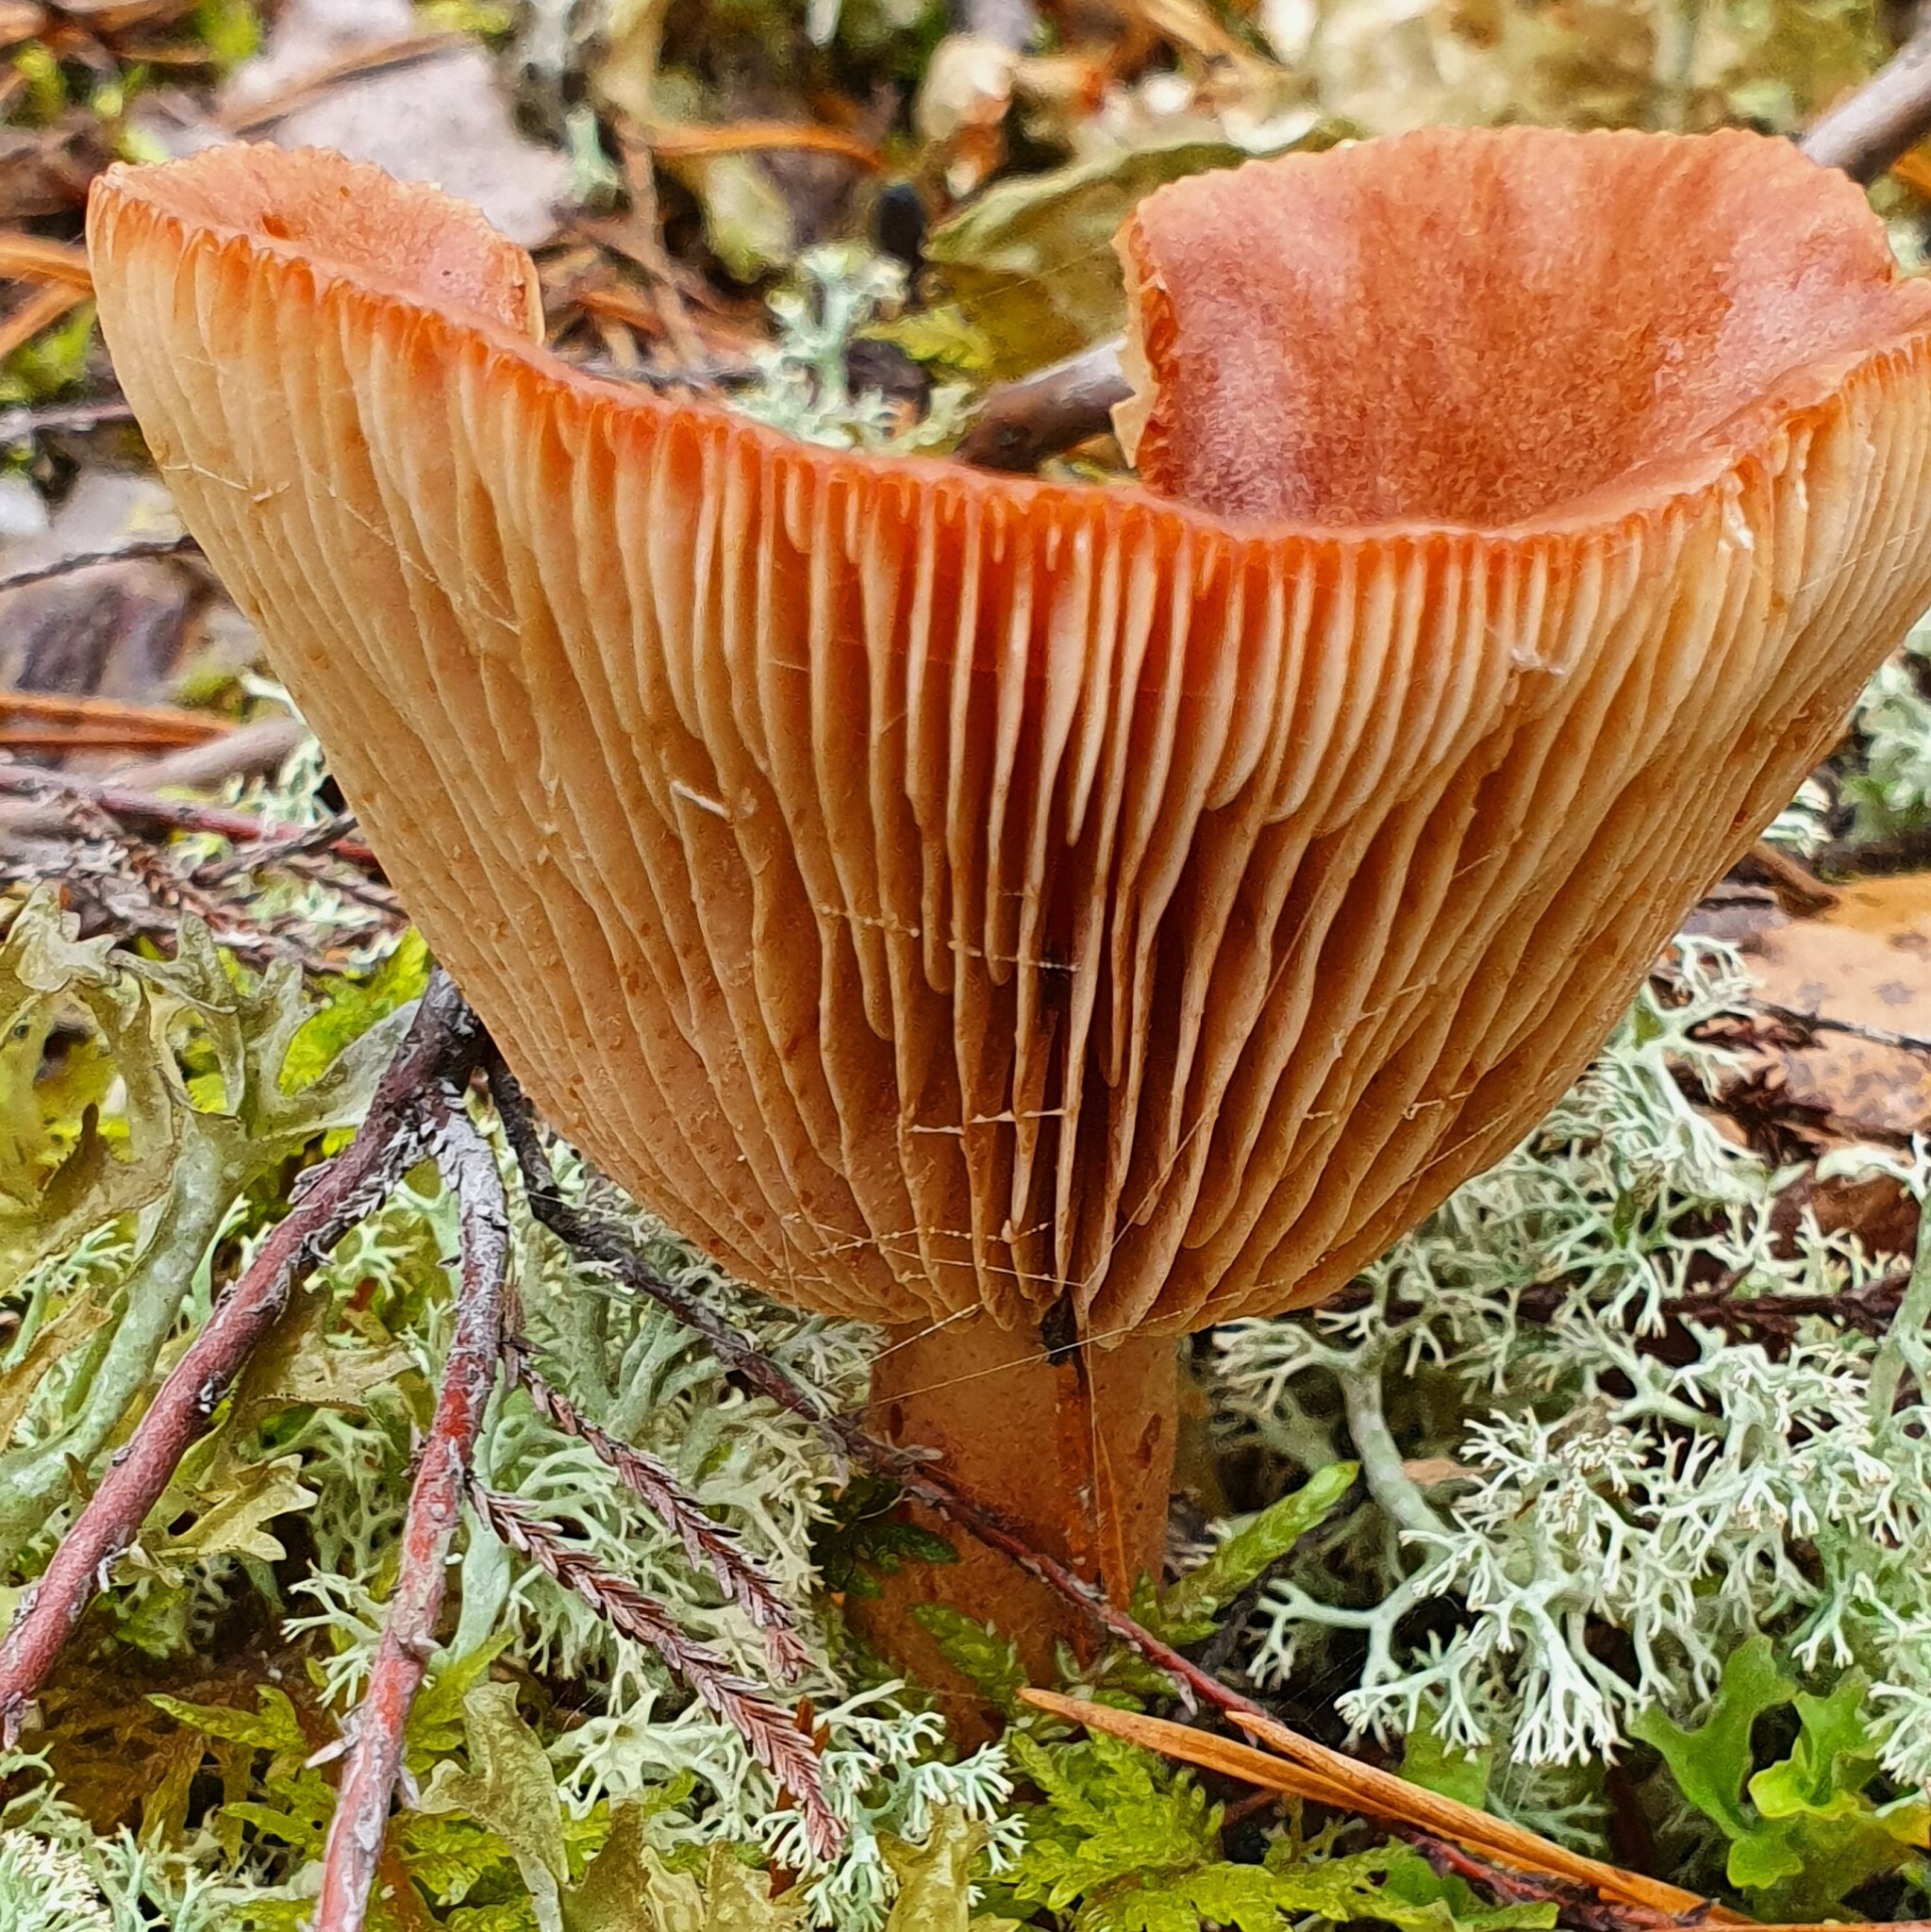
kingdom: Fungi
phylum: Basidiomycota
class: Agaricomycetes
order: Russulales
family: Russulaceae
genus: Lactarius
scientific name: Lactarius rufus
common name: Rufous milk-cap
